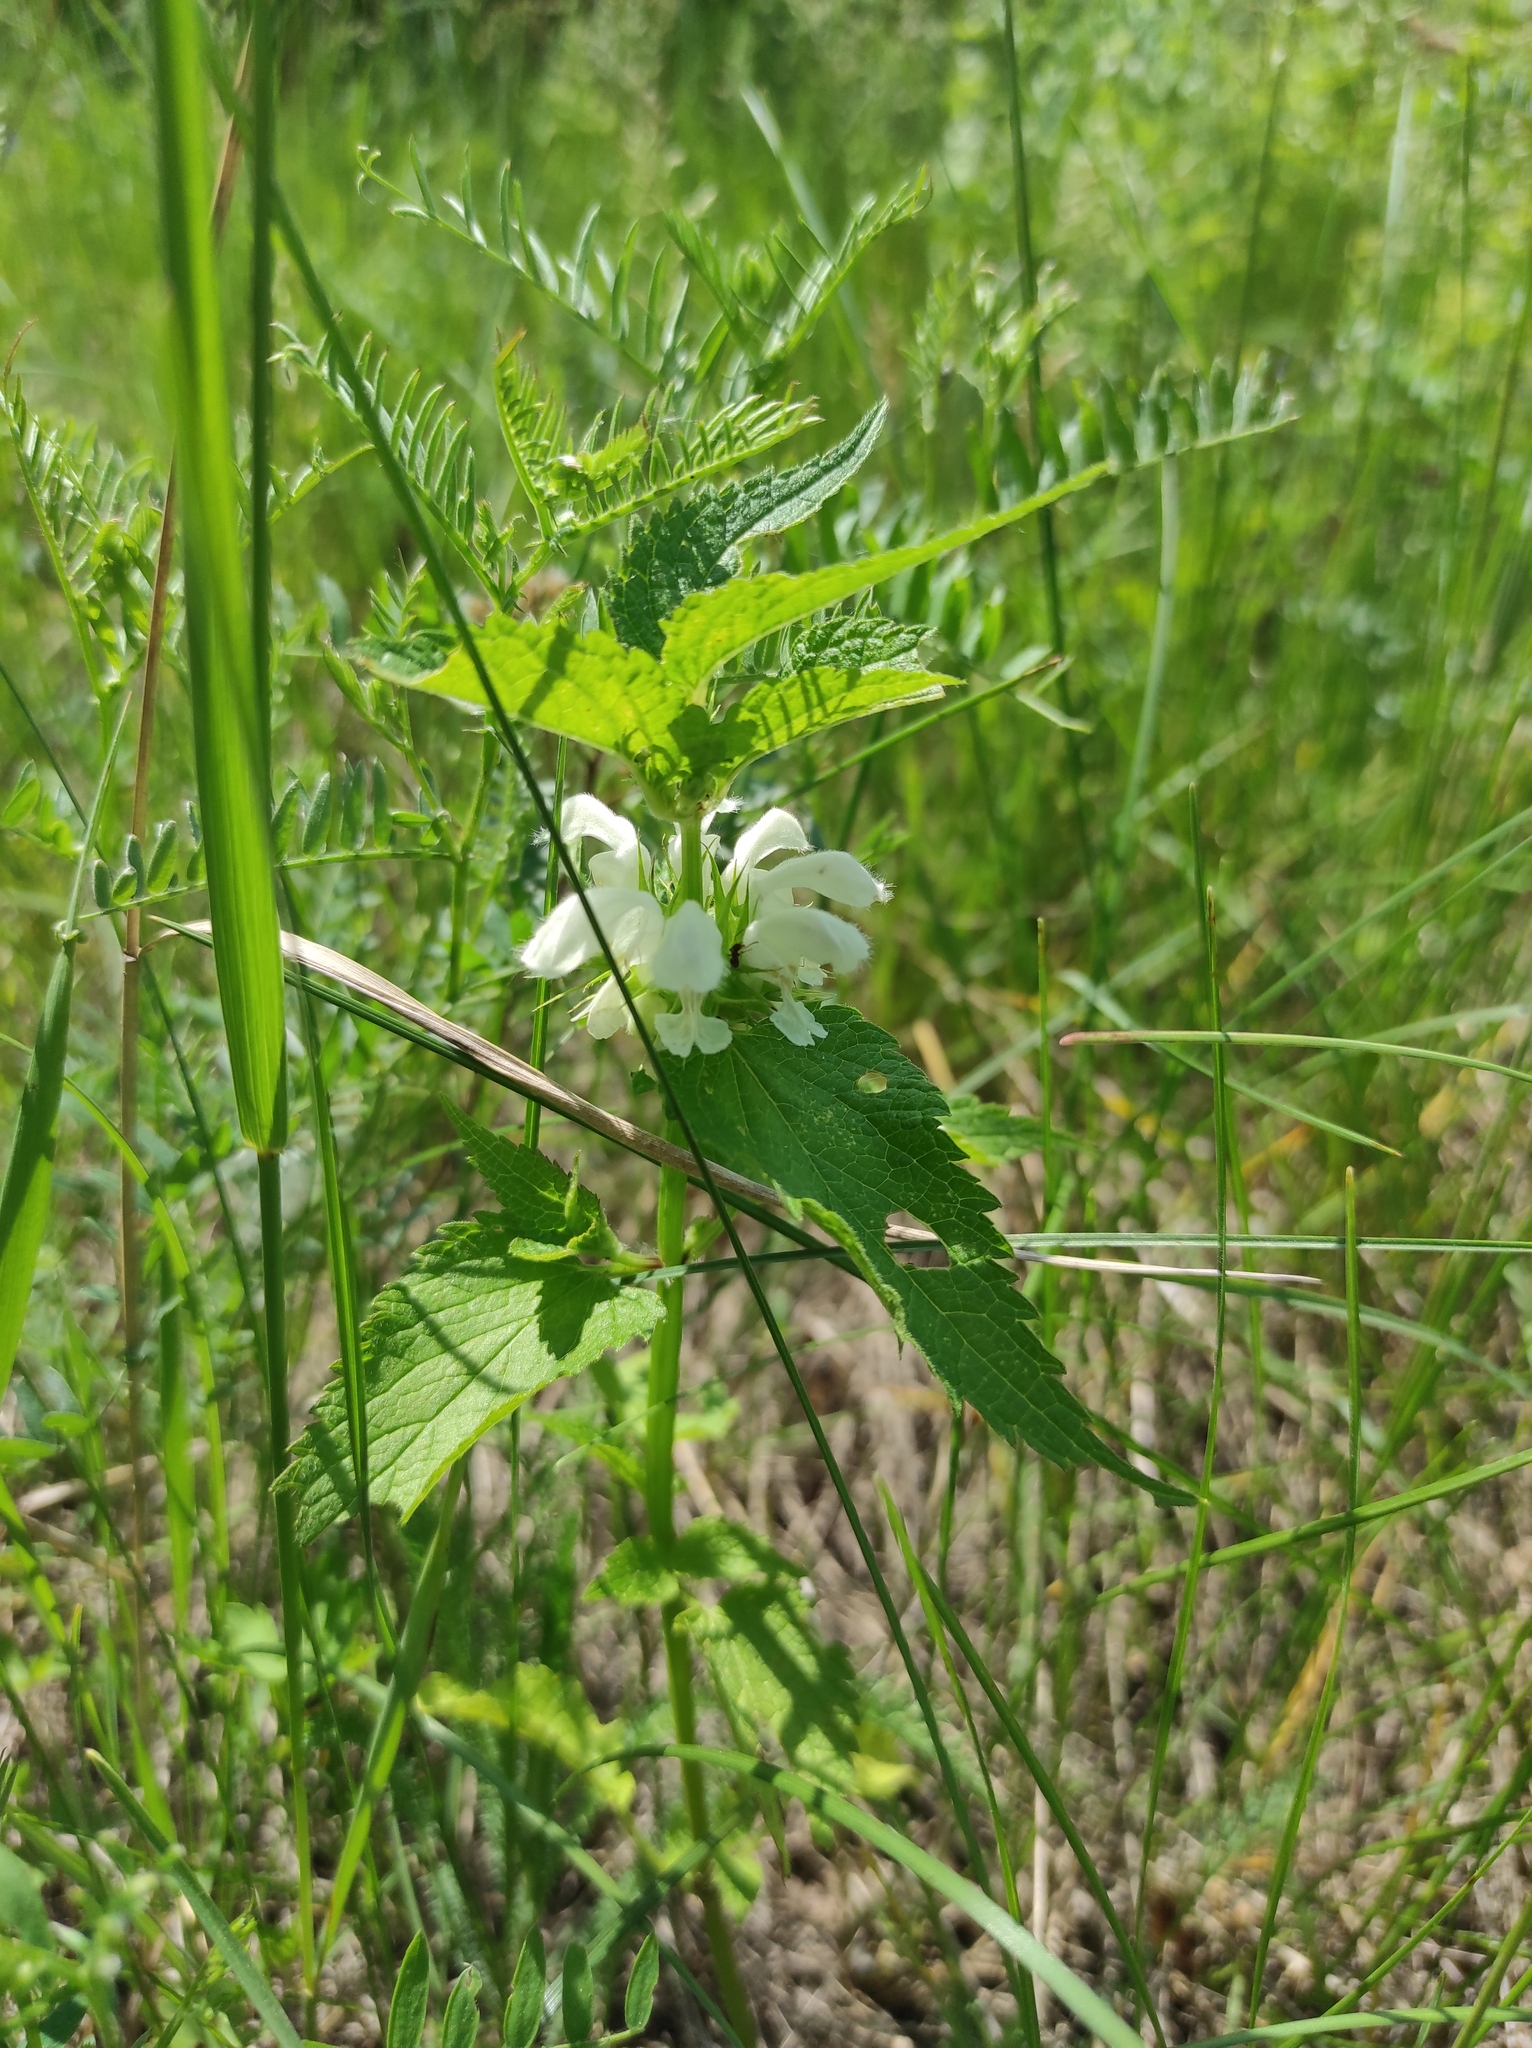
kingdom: Plantae
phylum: Tracheophyta
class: Magnoliopsida
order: Lamiales
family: Lamiaceae
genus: Lamium
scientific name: Lamium album
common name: White dead-nettle
